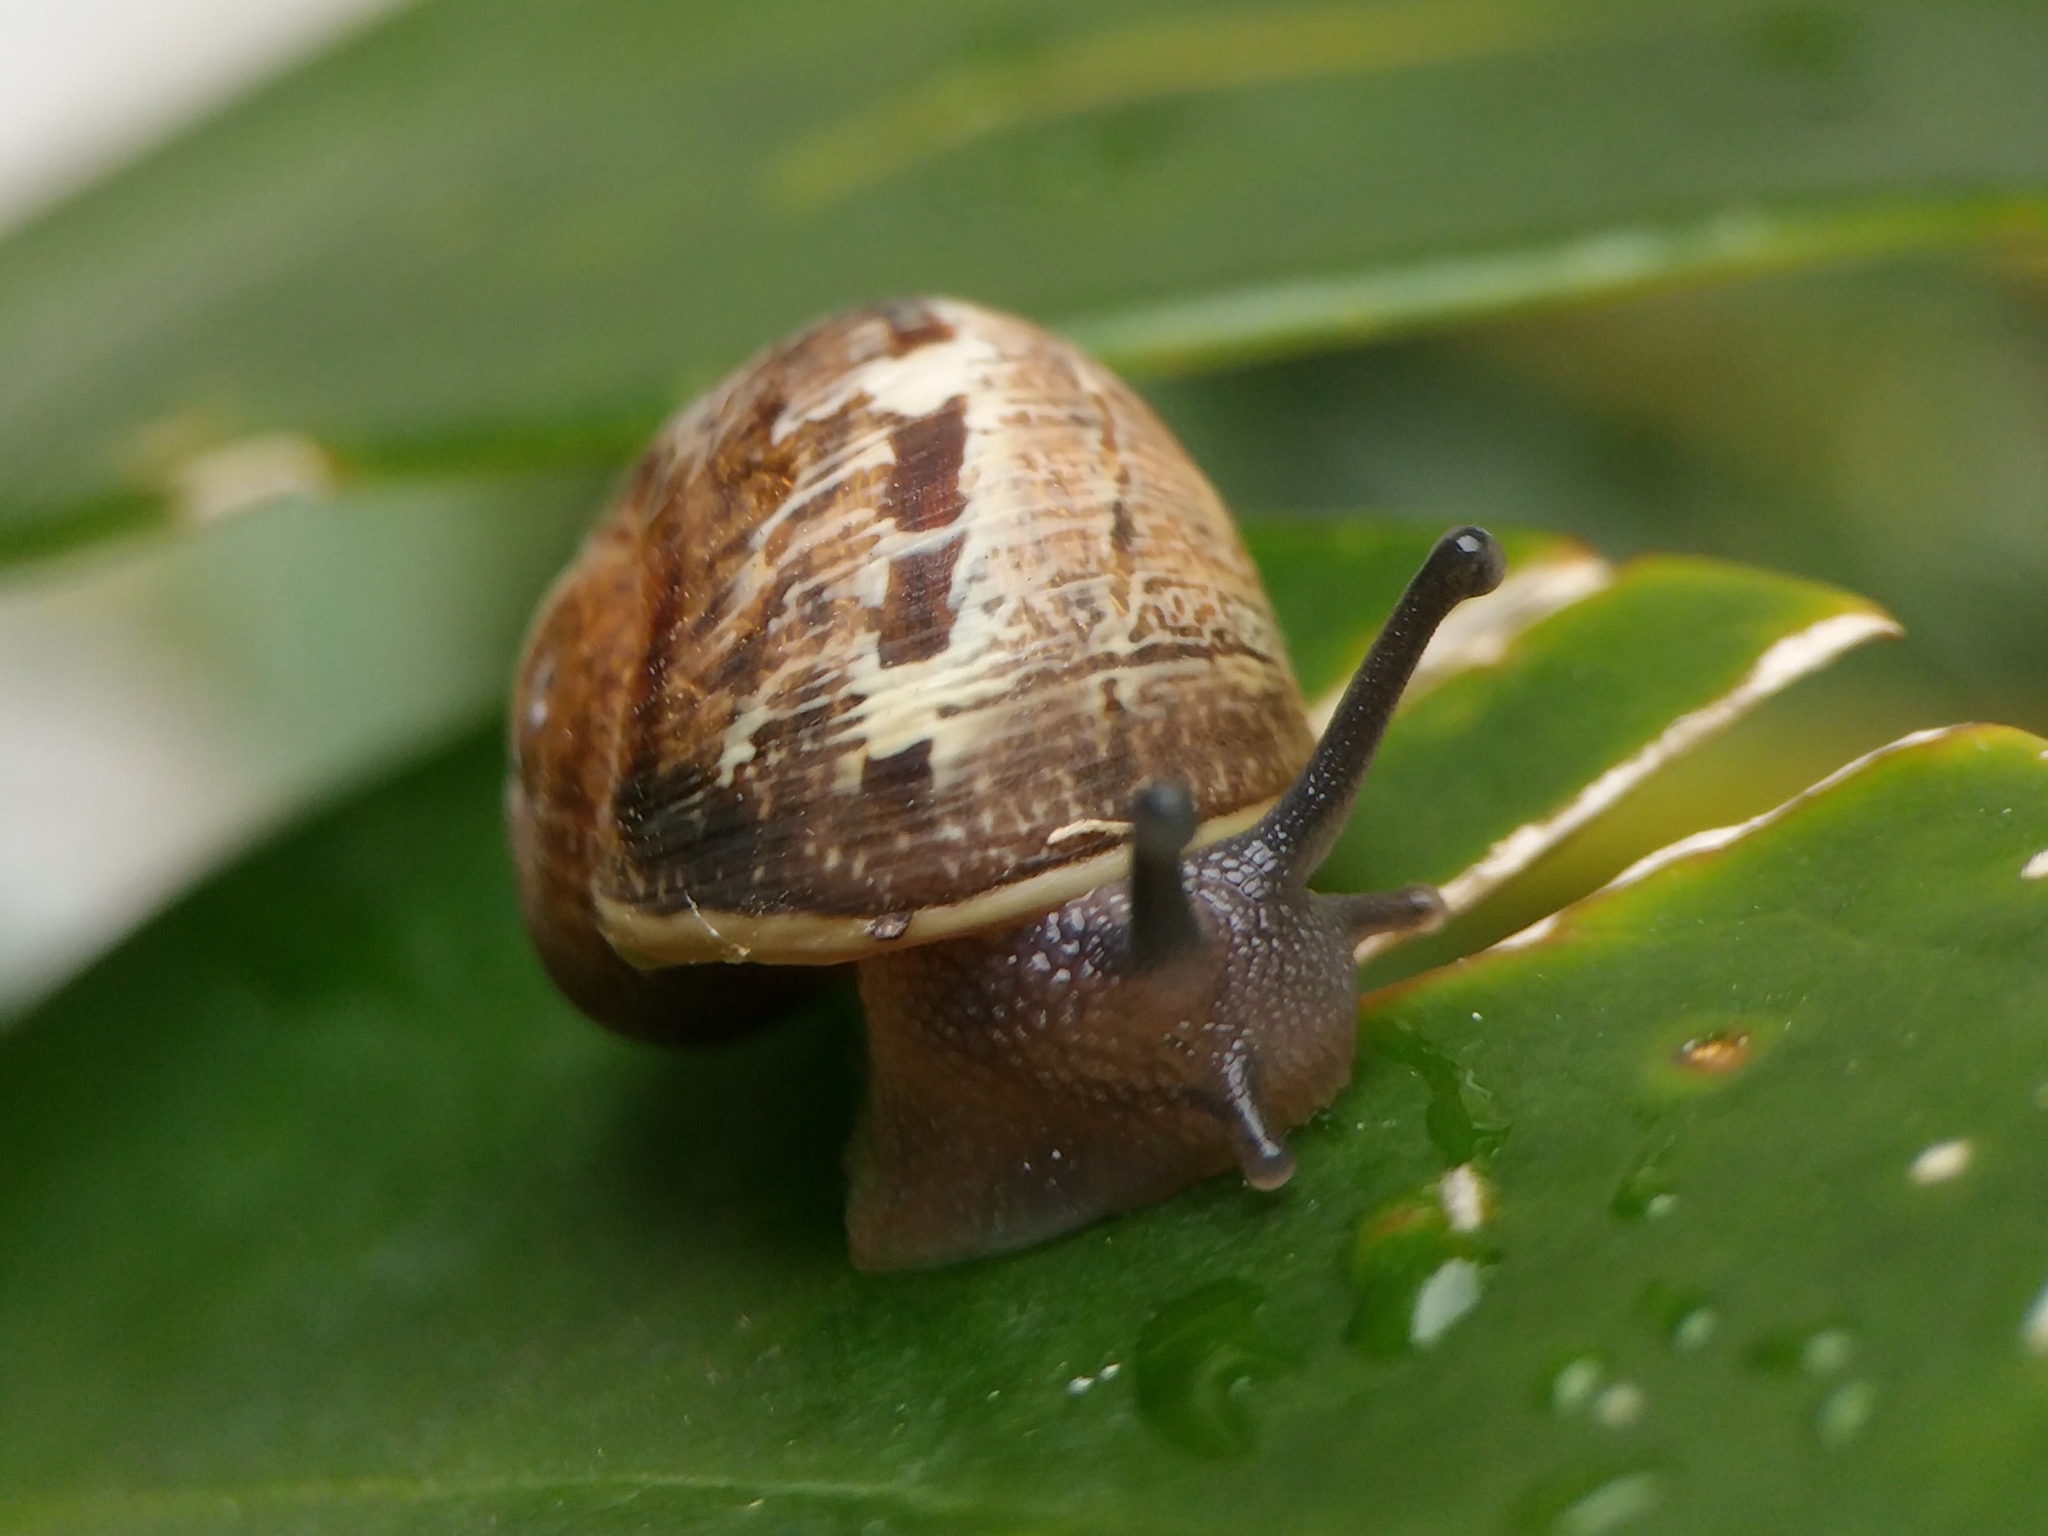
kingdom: Animalia
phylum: Mollusca
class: Gastropoda
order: Stylommatophora
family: Helicidae
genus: Cornu
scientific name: Cornu aspersum
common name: Brown garden snail
